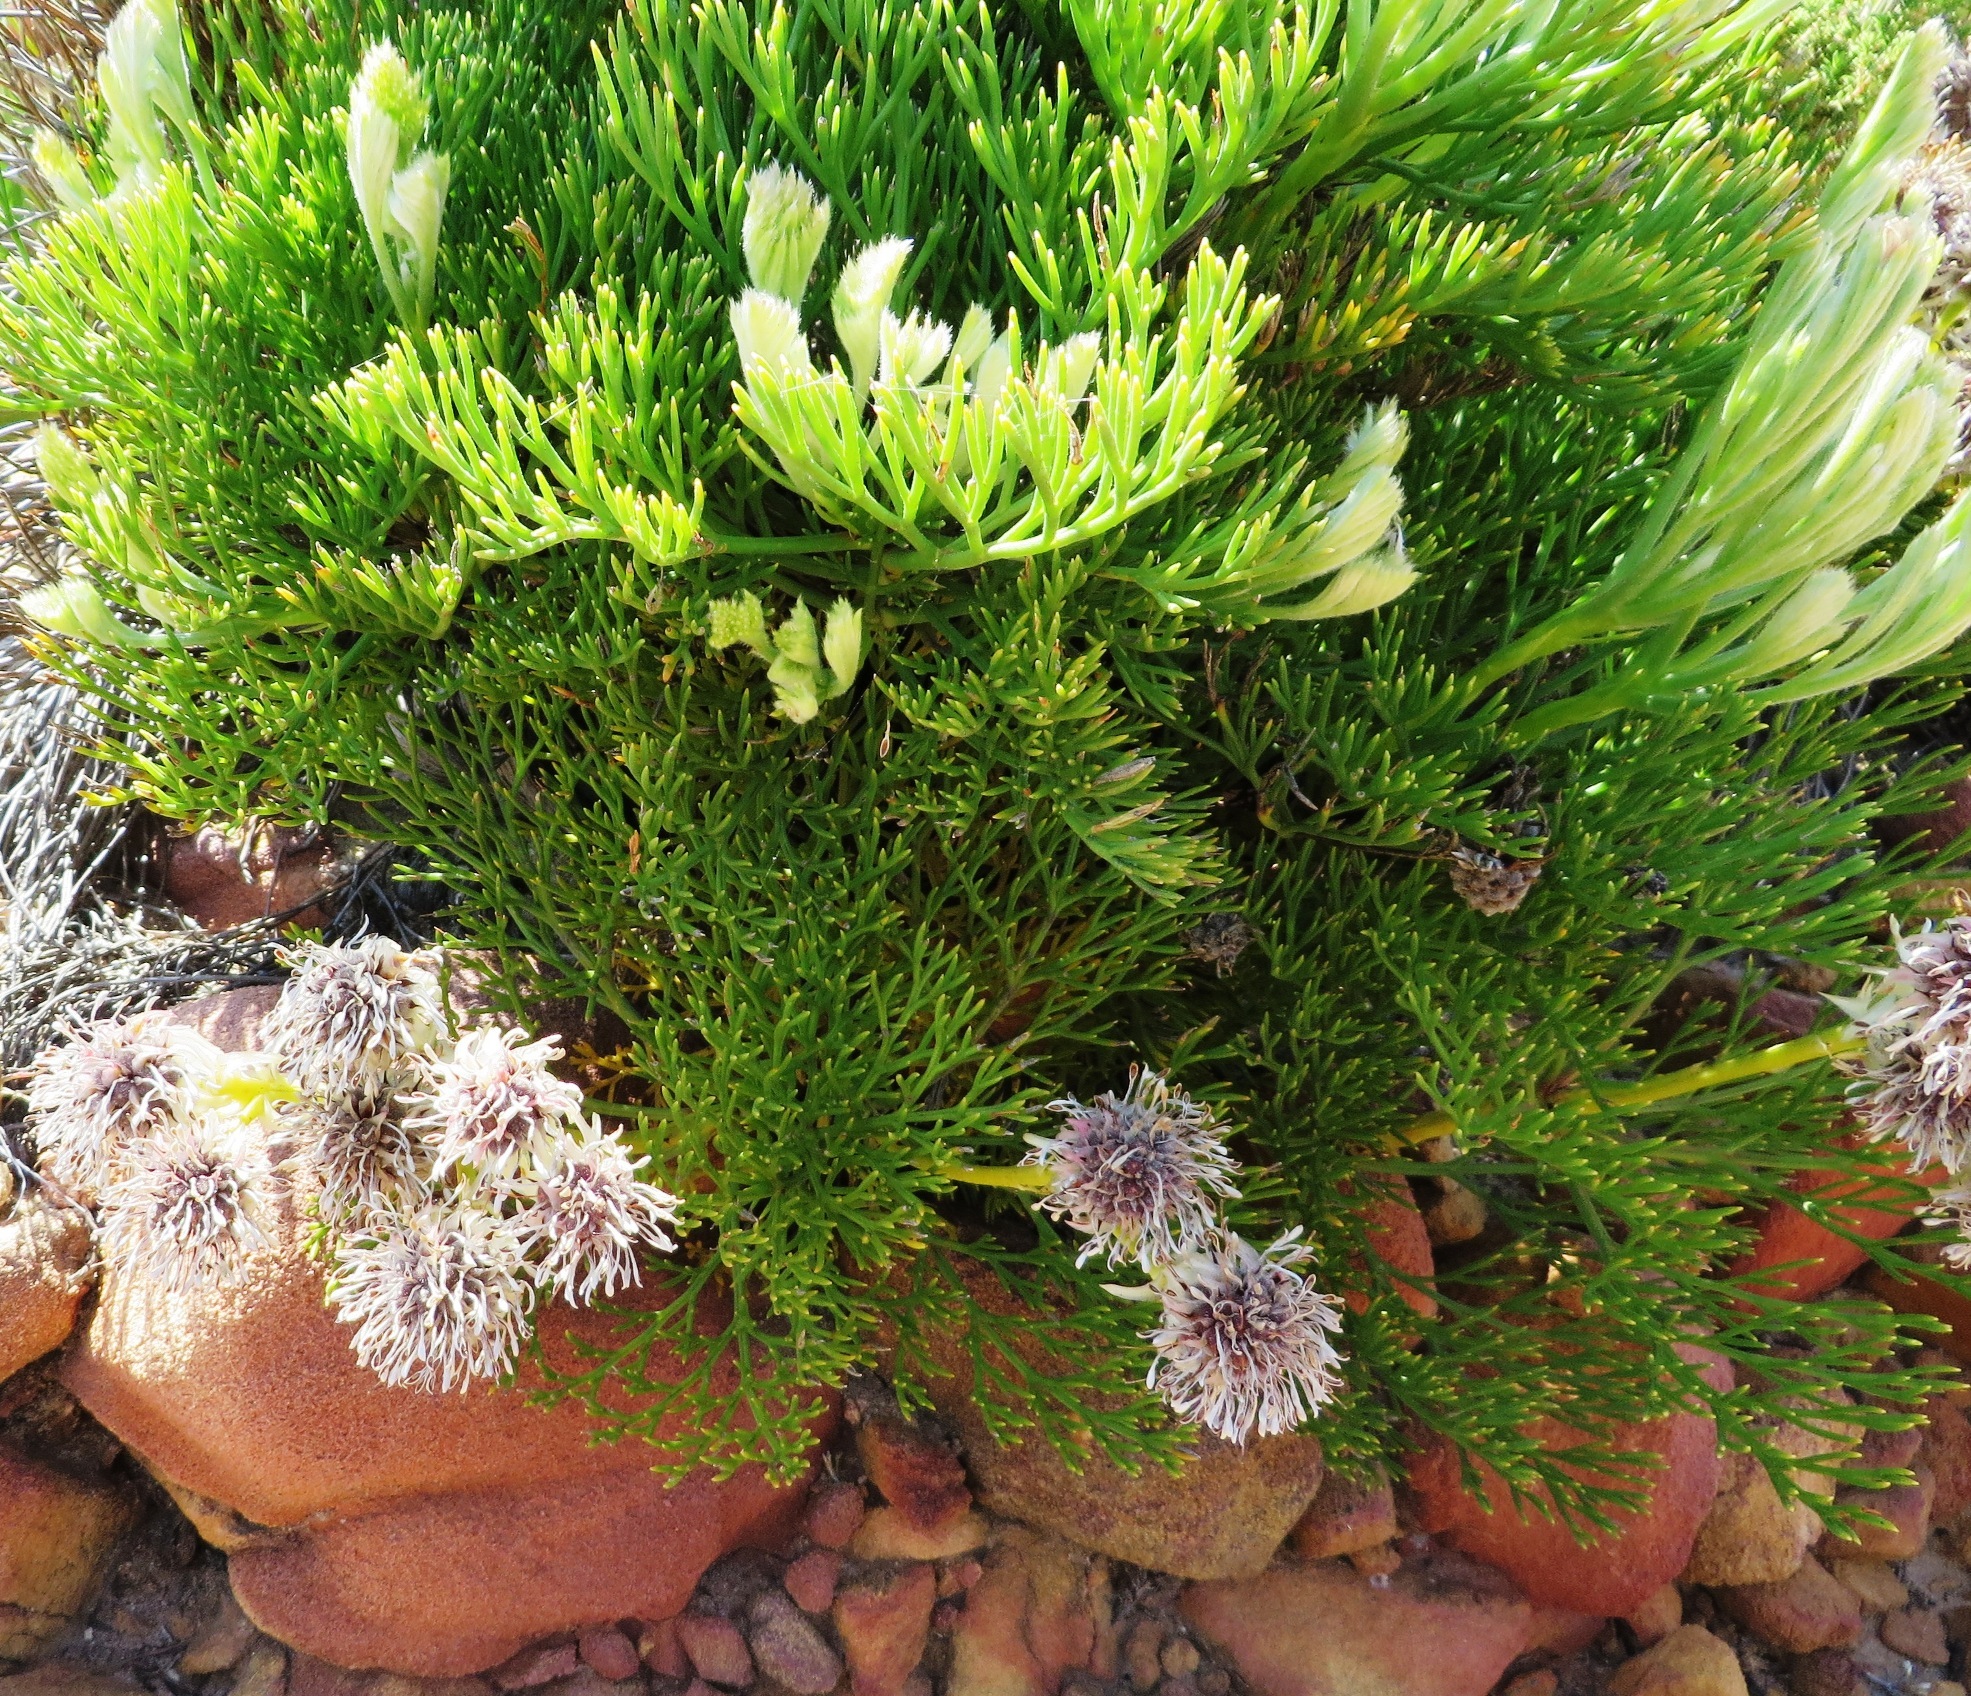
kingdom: Plantae
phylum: Tracheophyta
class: Magnoliopsida
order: Proteales
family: Proteaceae
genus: Serruria
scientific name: Serruria elongata
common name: Long-stalk spiderhead
